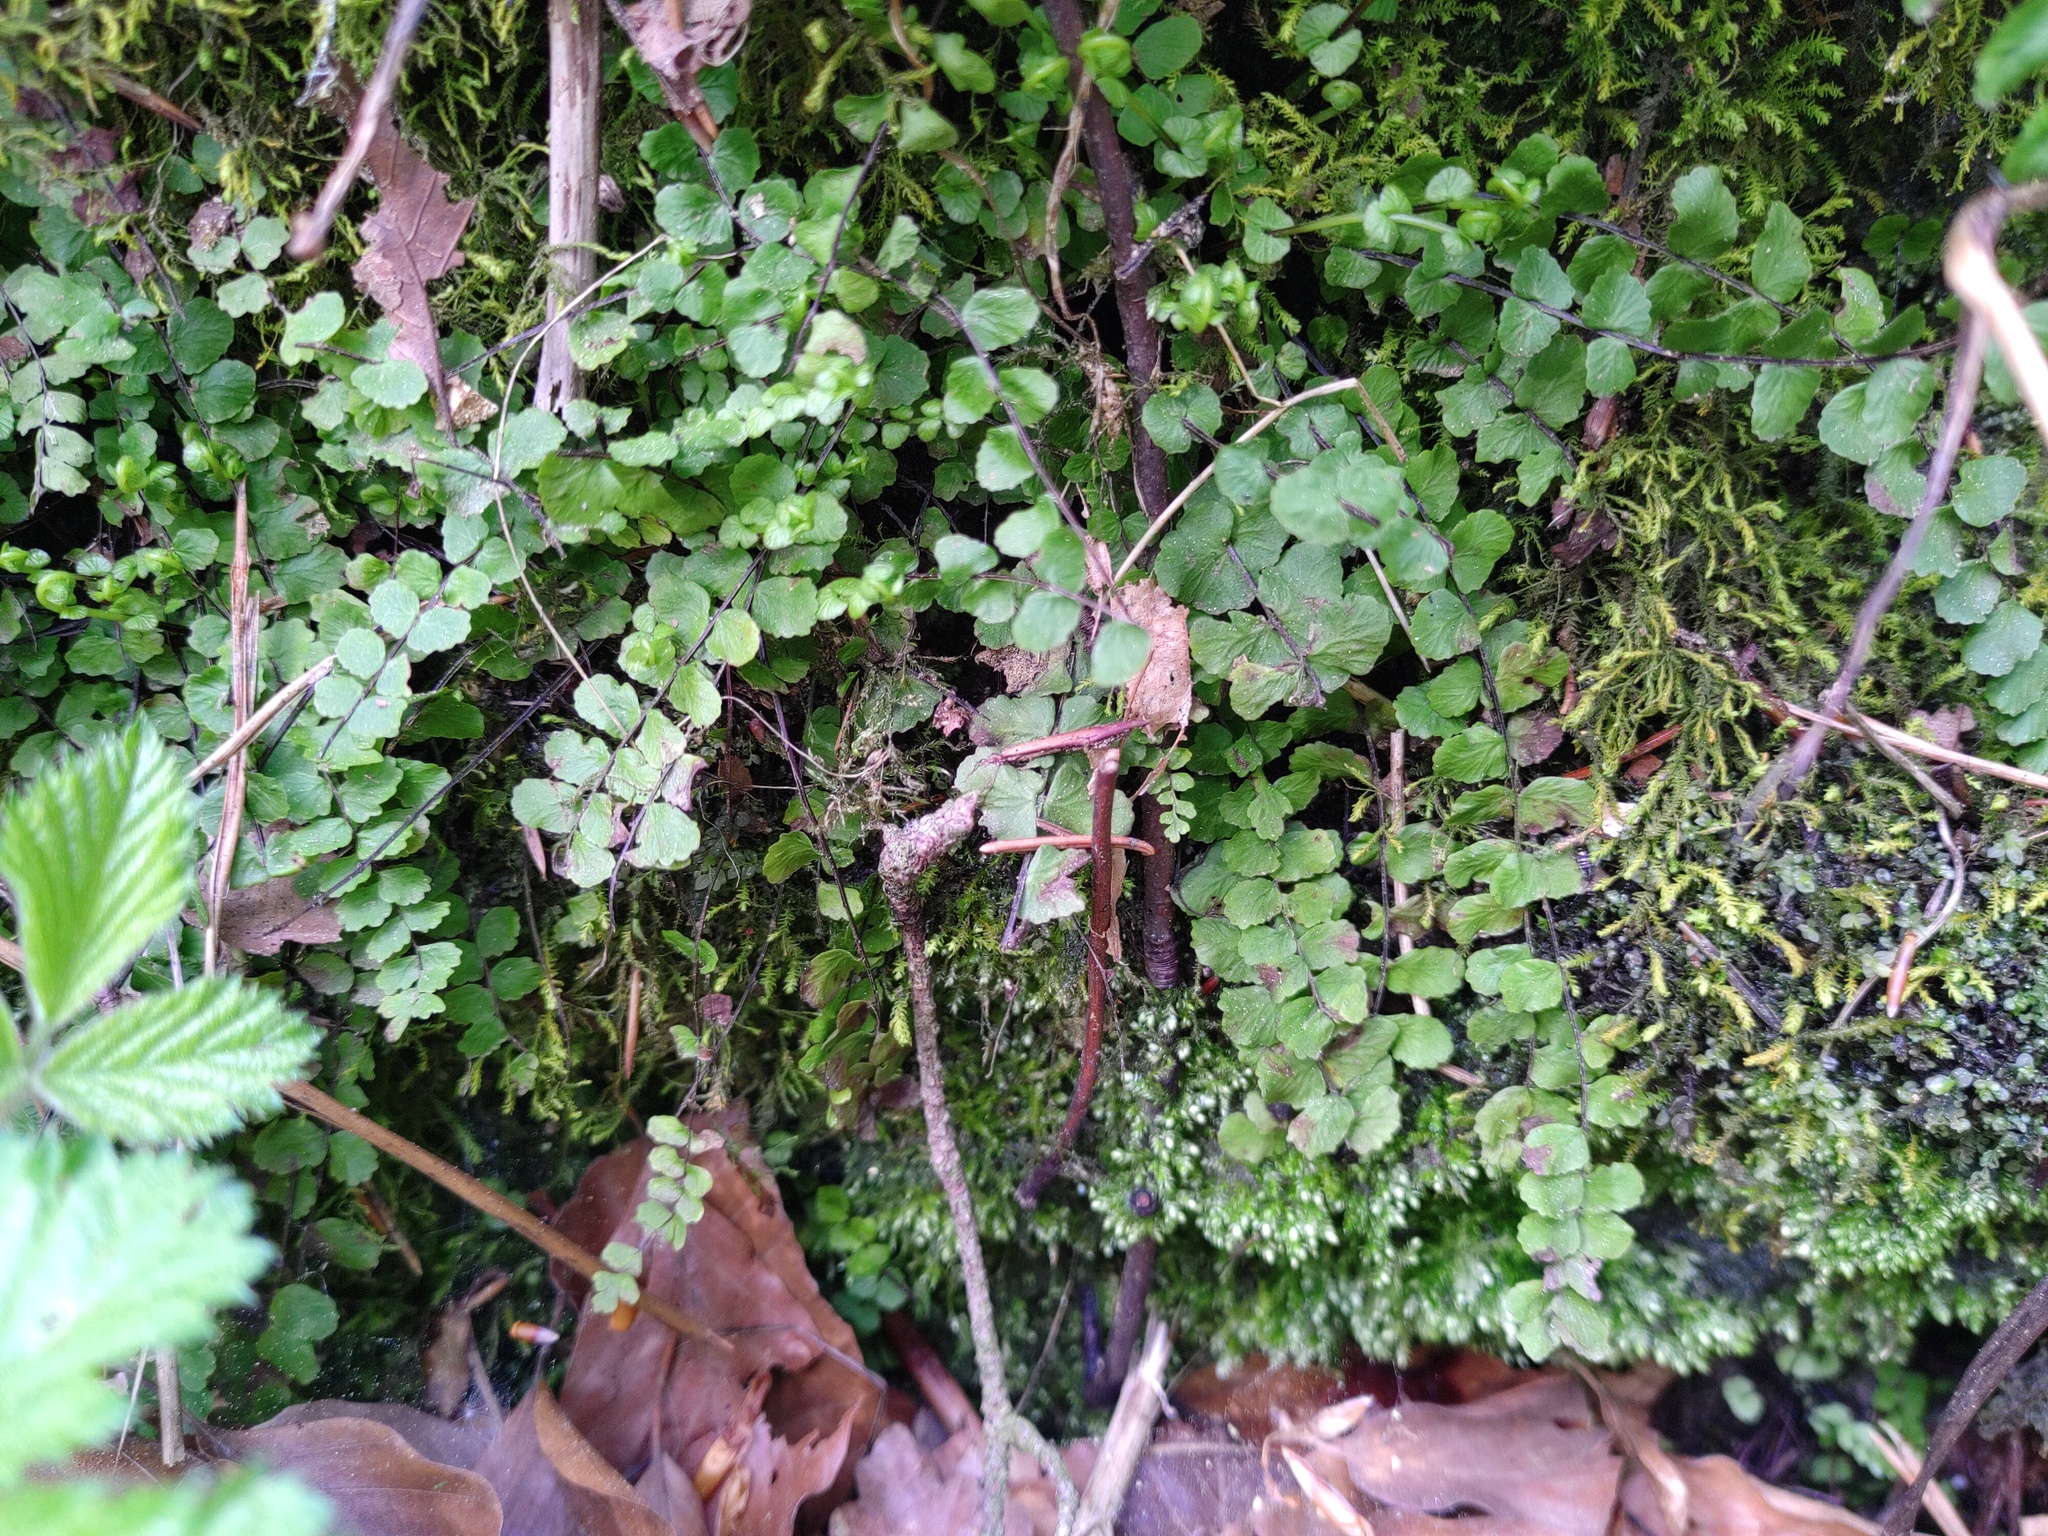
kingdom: Plantae
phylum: Tracheophyta
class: Polypodiopsida
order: Polypodiales
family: Aspleniaceae
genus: Asplenium
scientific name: Asplenium trichomanes
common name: Maidenhair spleenwort
